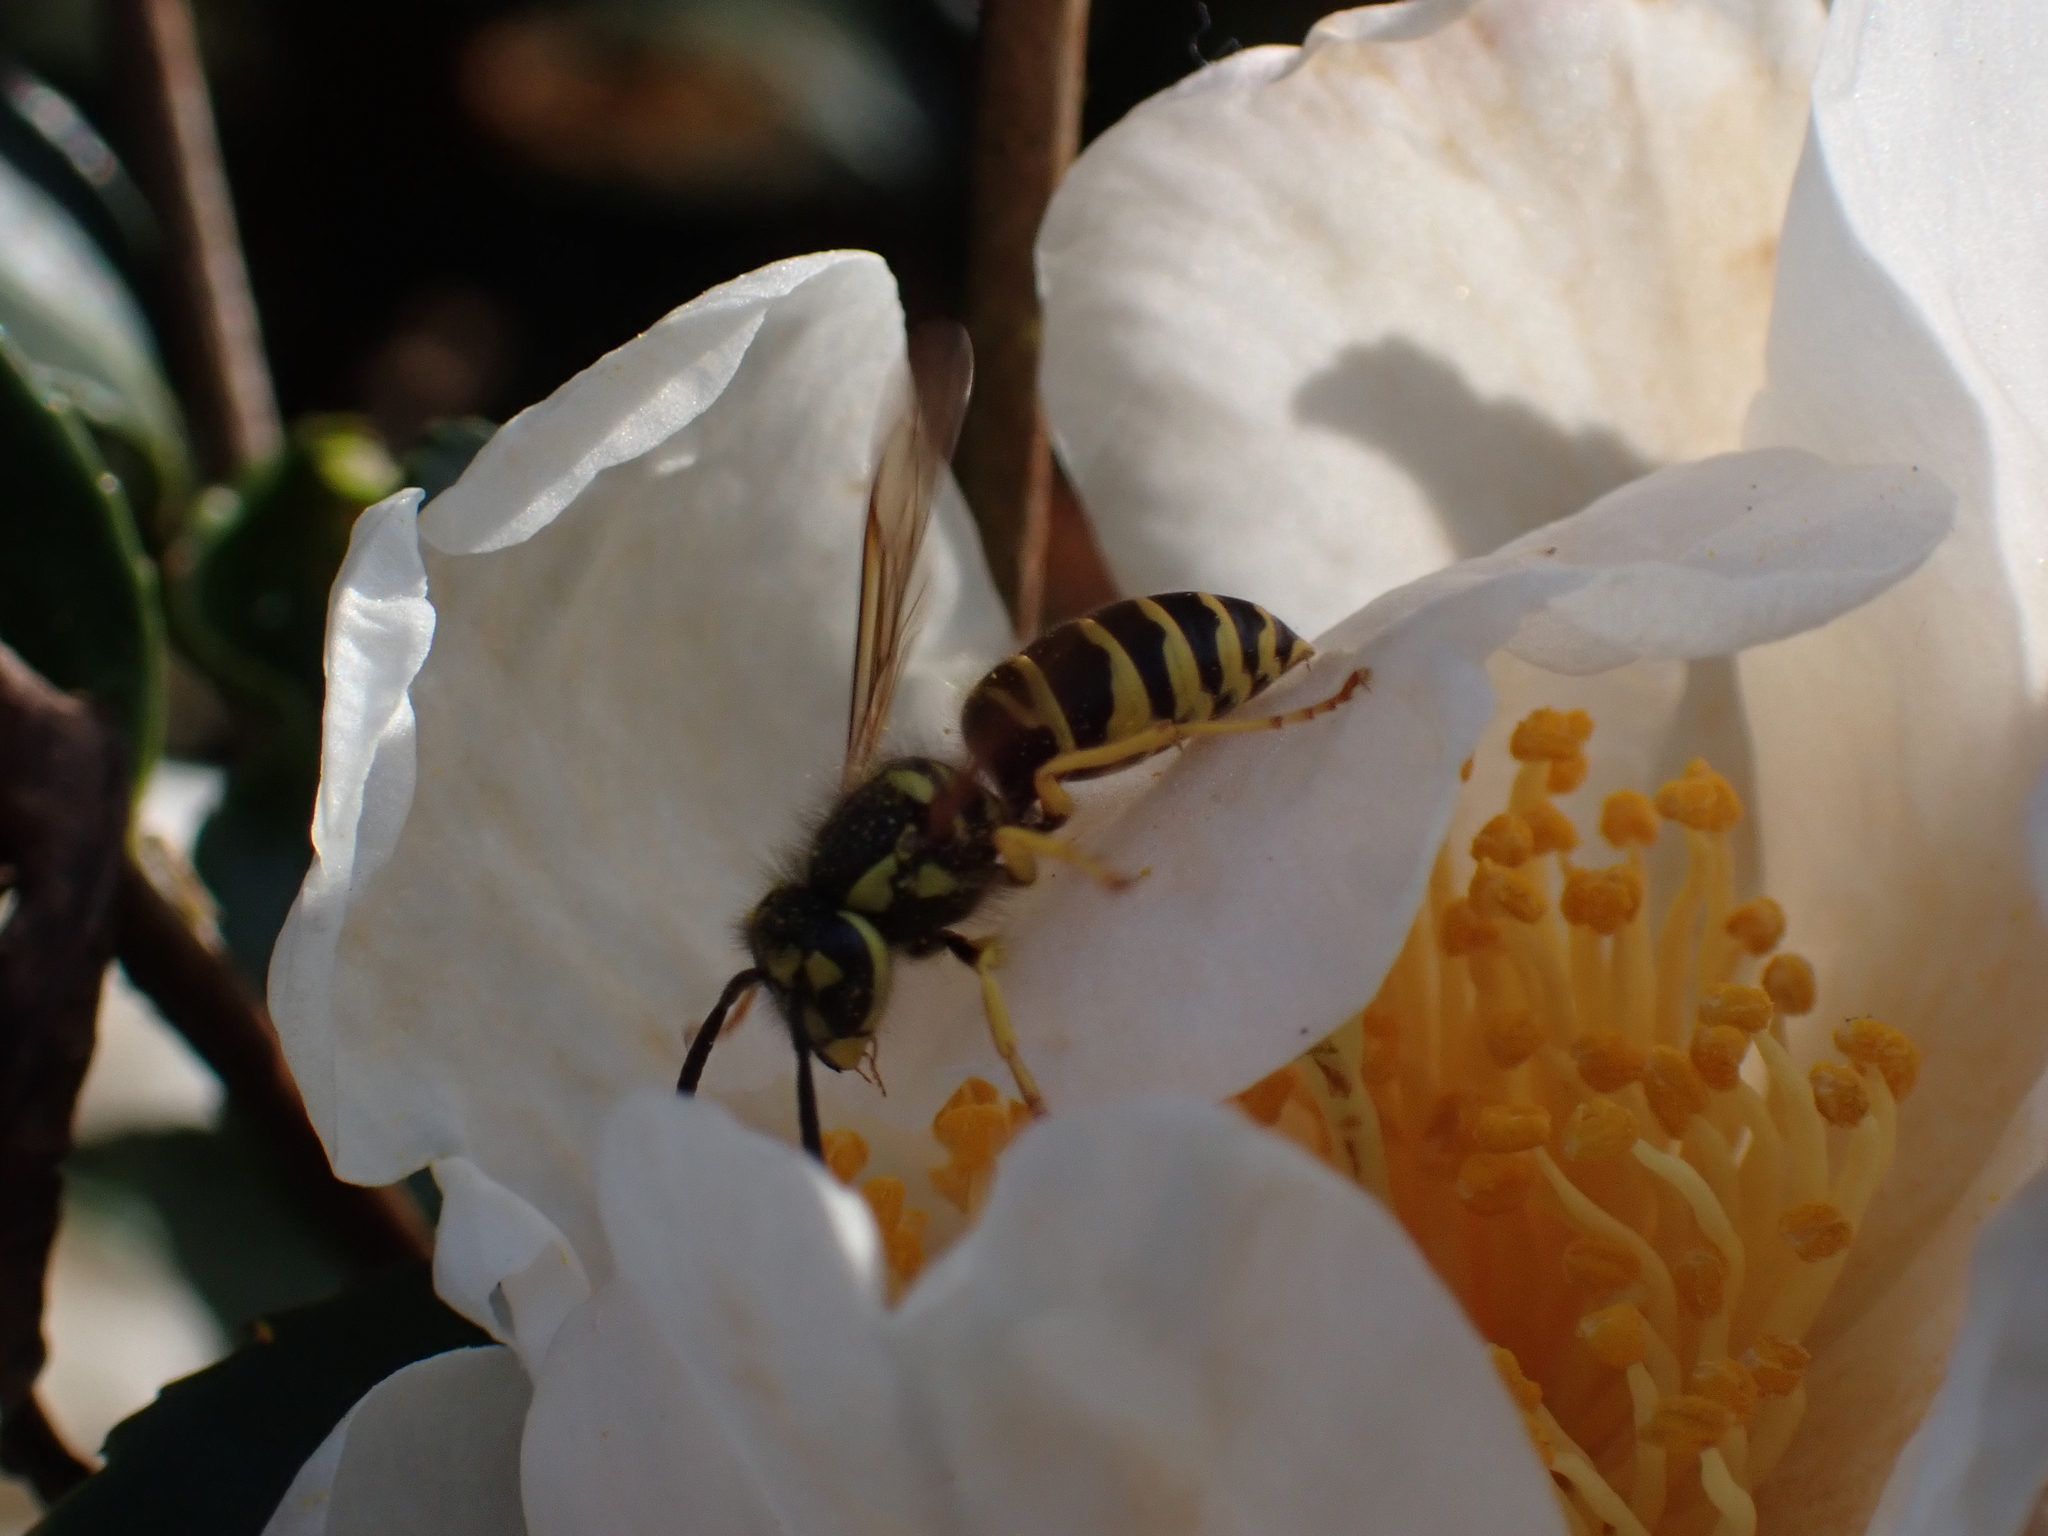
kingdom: Animalia
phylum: Arthropoda
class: Insecta
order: Hymenoptera
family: Vespidae
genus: Vespula
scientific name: Vespula maculifrons
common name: Eastern yellowjacket
